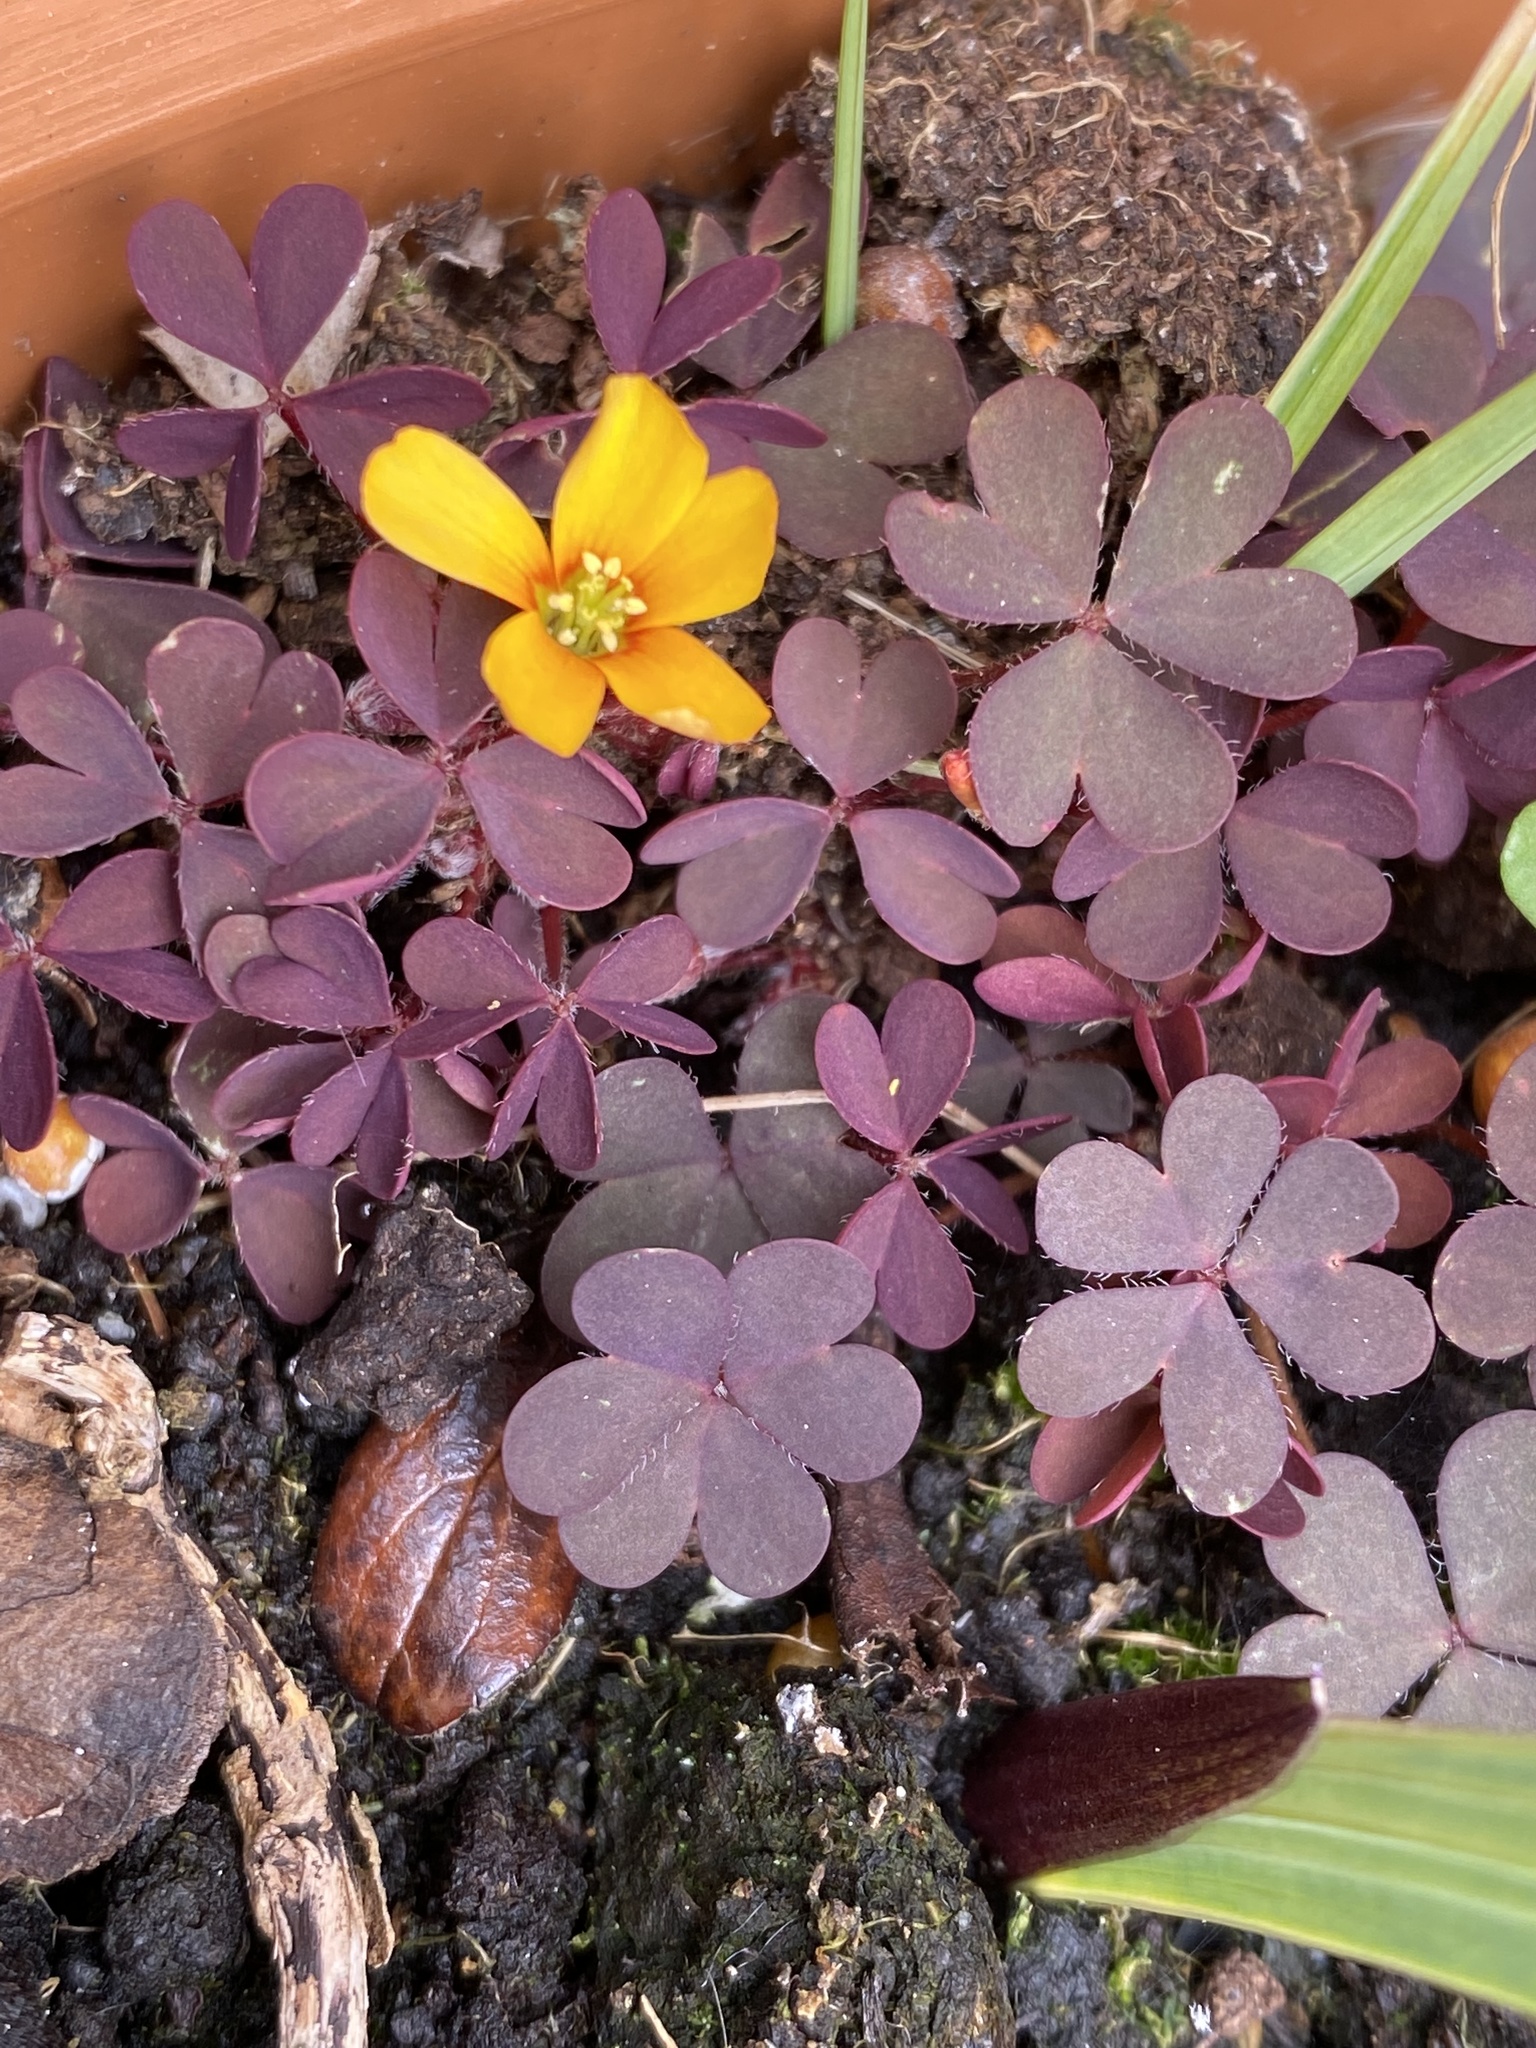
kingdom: Plantae
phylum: Tracheophyta
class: Magnoliopsida
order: Oxalidales
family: Oxalidaceae
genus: Oxalis
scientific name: Oxalis corniculata
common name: Procumbent yellow-sorrel
